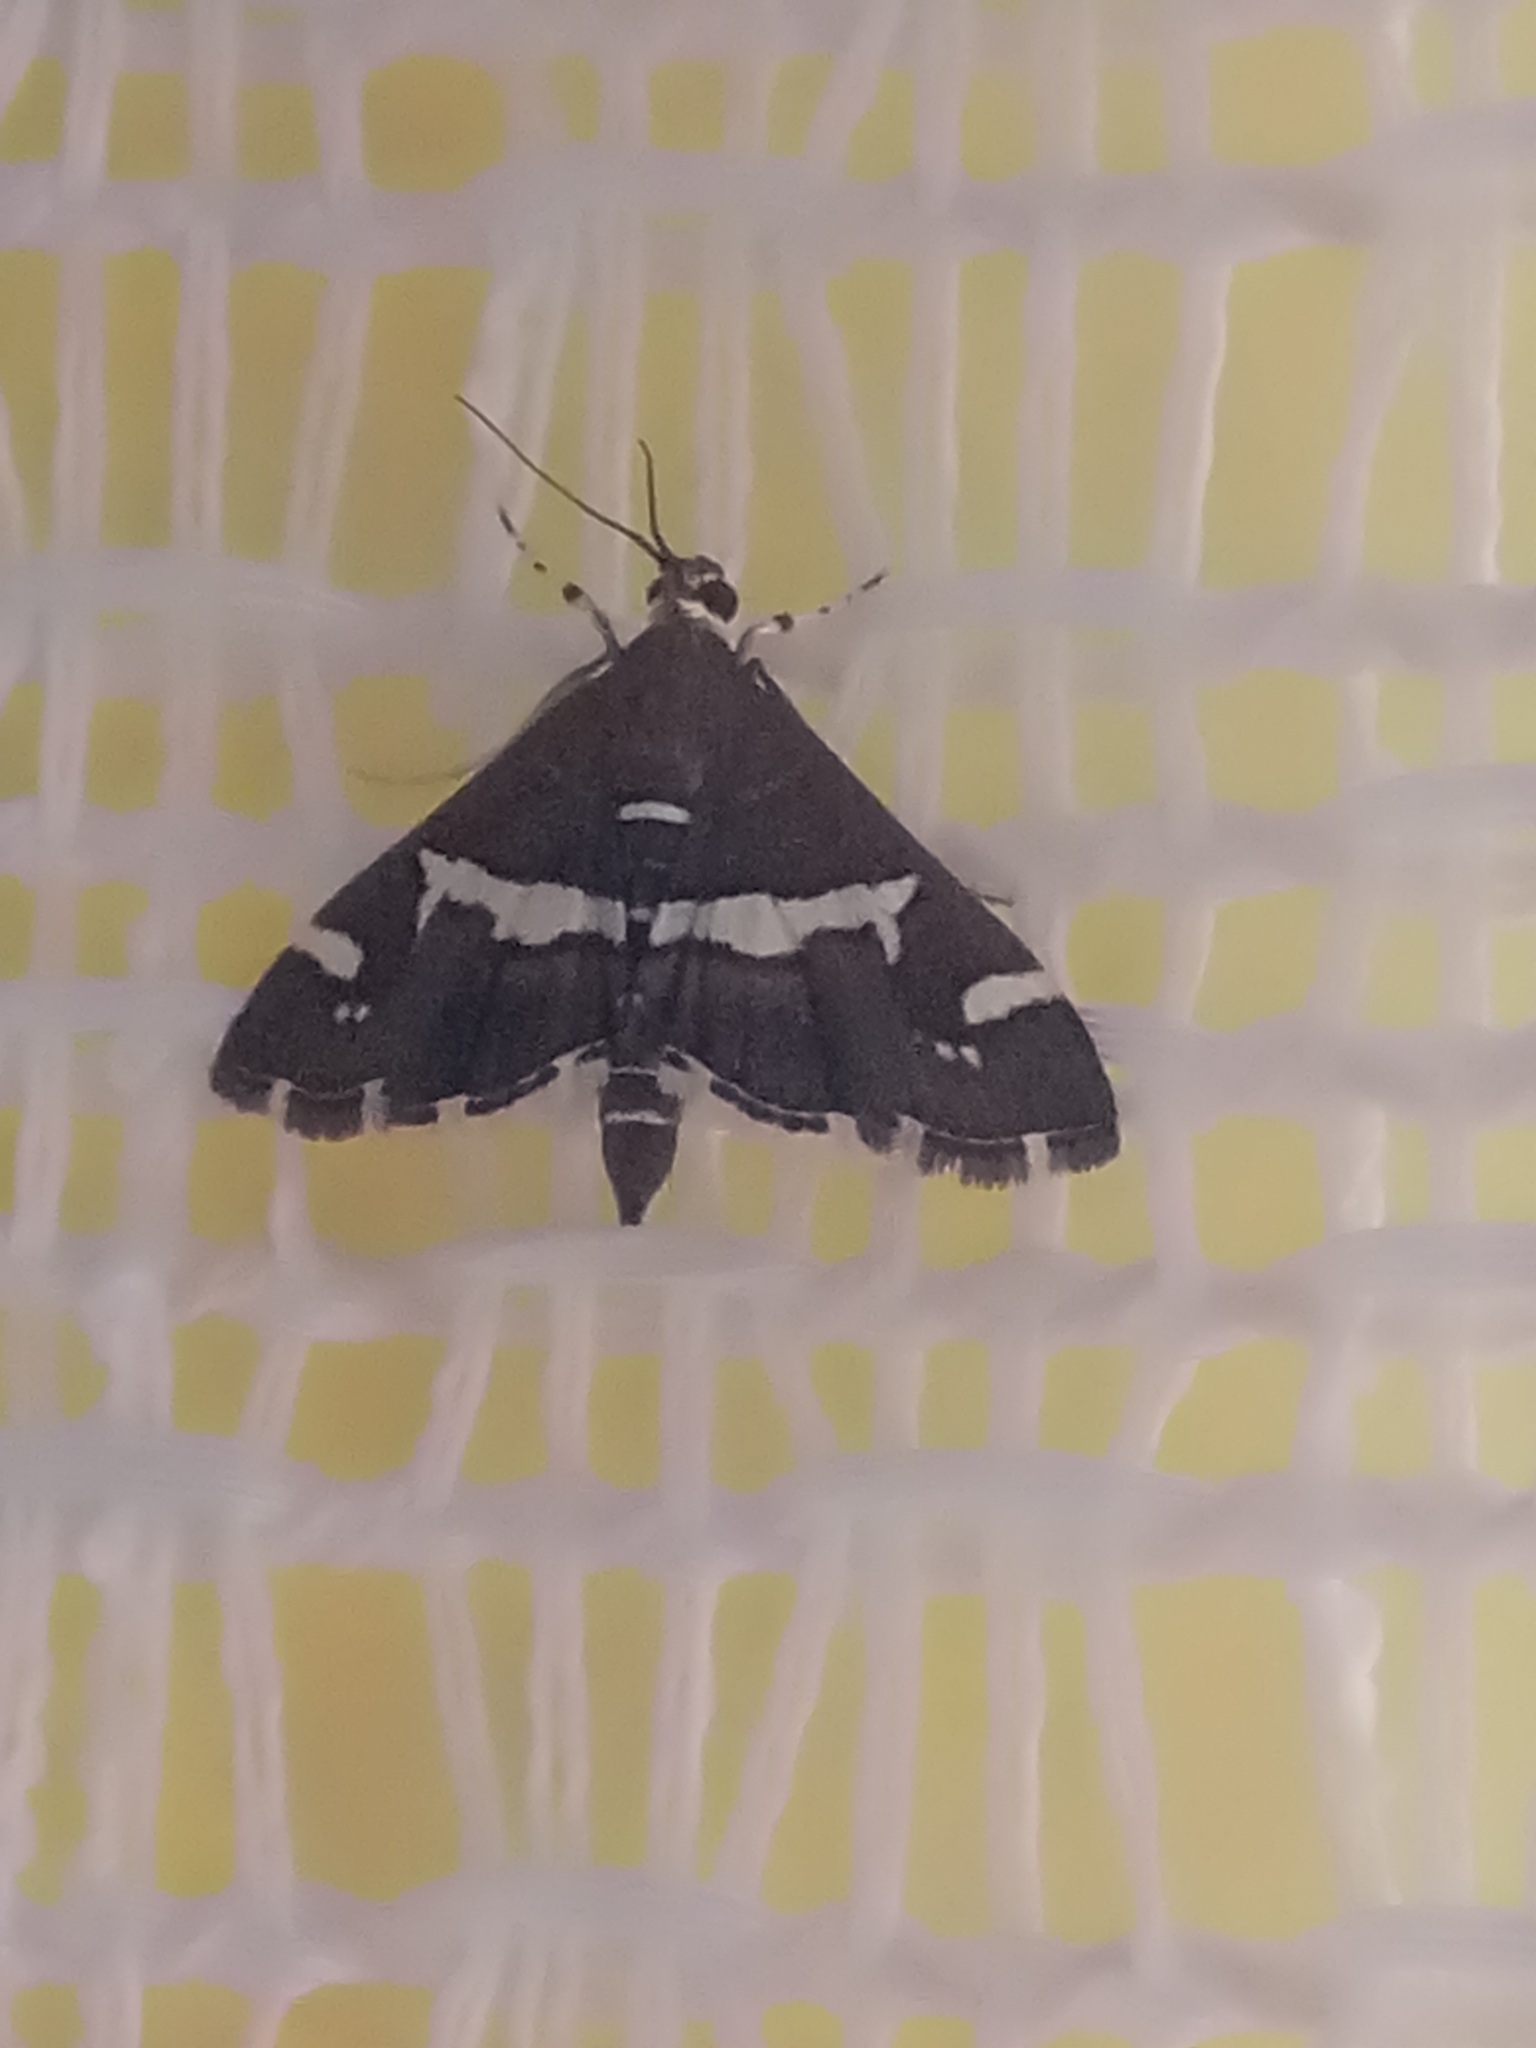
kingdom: Animalia
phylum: Arthropoda
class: Insecta
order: Lepidoptera
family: Crambidae
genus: Spoladea
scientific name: Spoladea recurvalis
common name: Beet webworm moth
